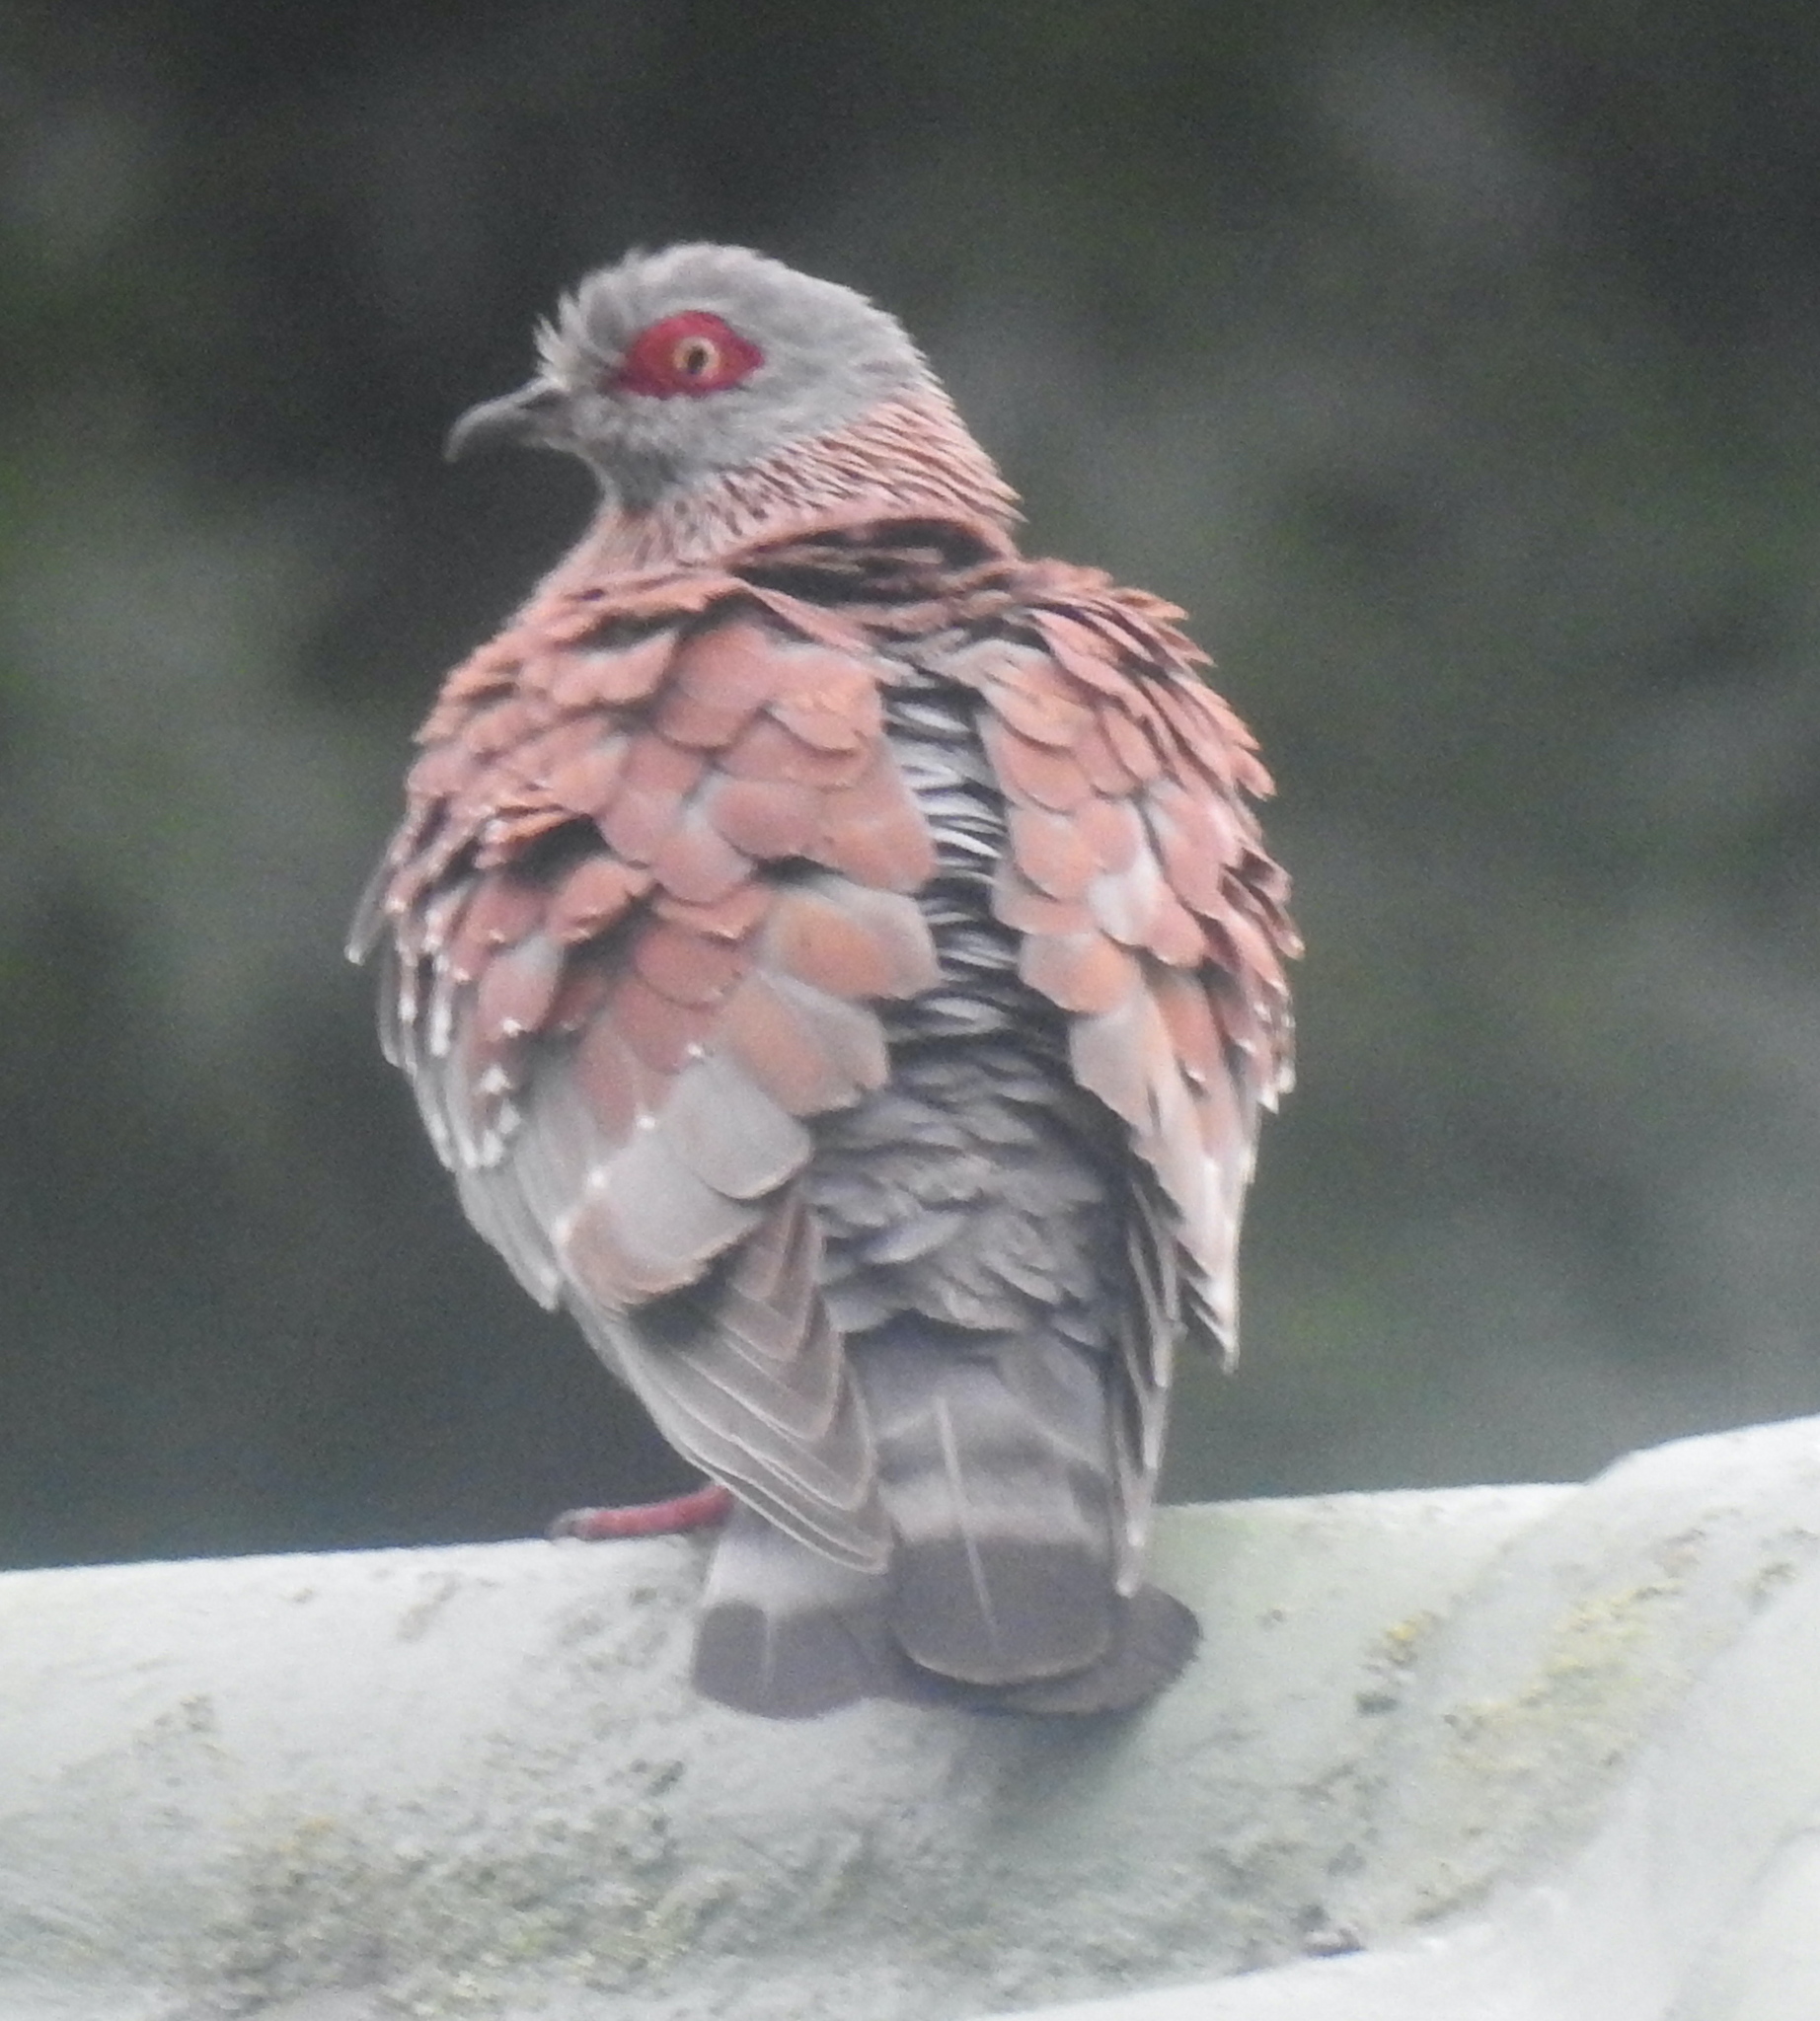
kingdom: Animalia
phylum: Chordata
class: Aves
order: Columbiformes
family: Columbidae
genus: Columba
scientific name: Columba guinea
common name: Speckled pigeon
